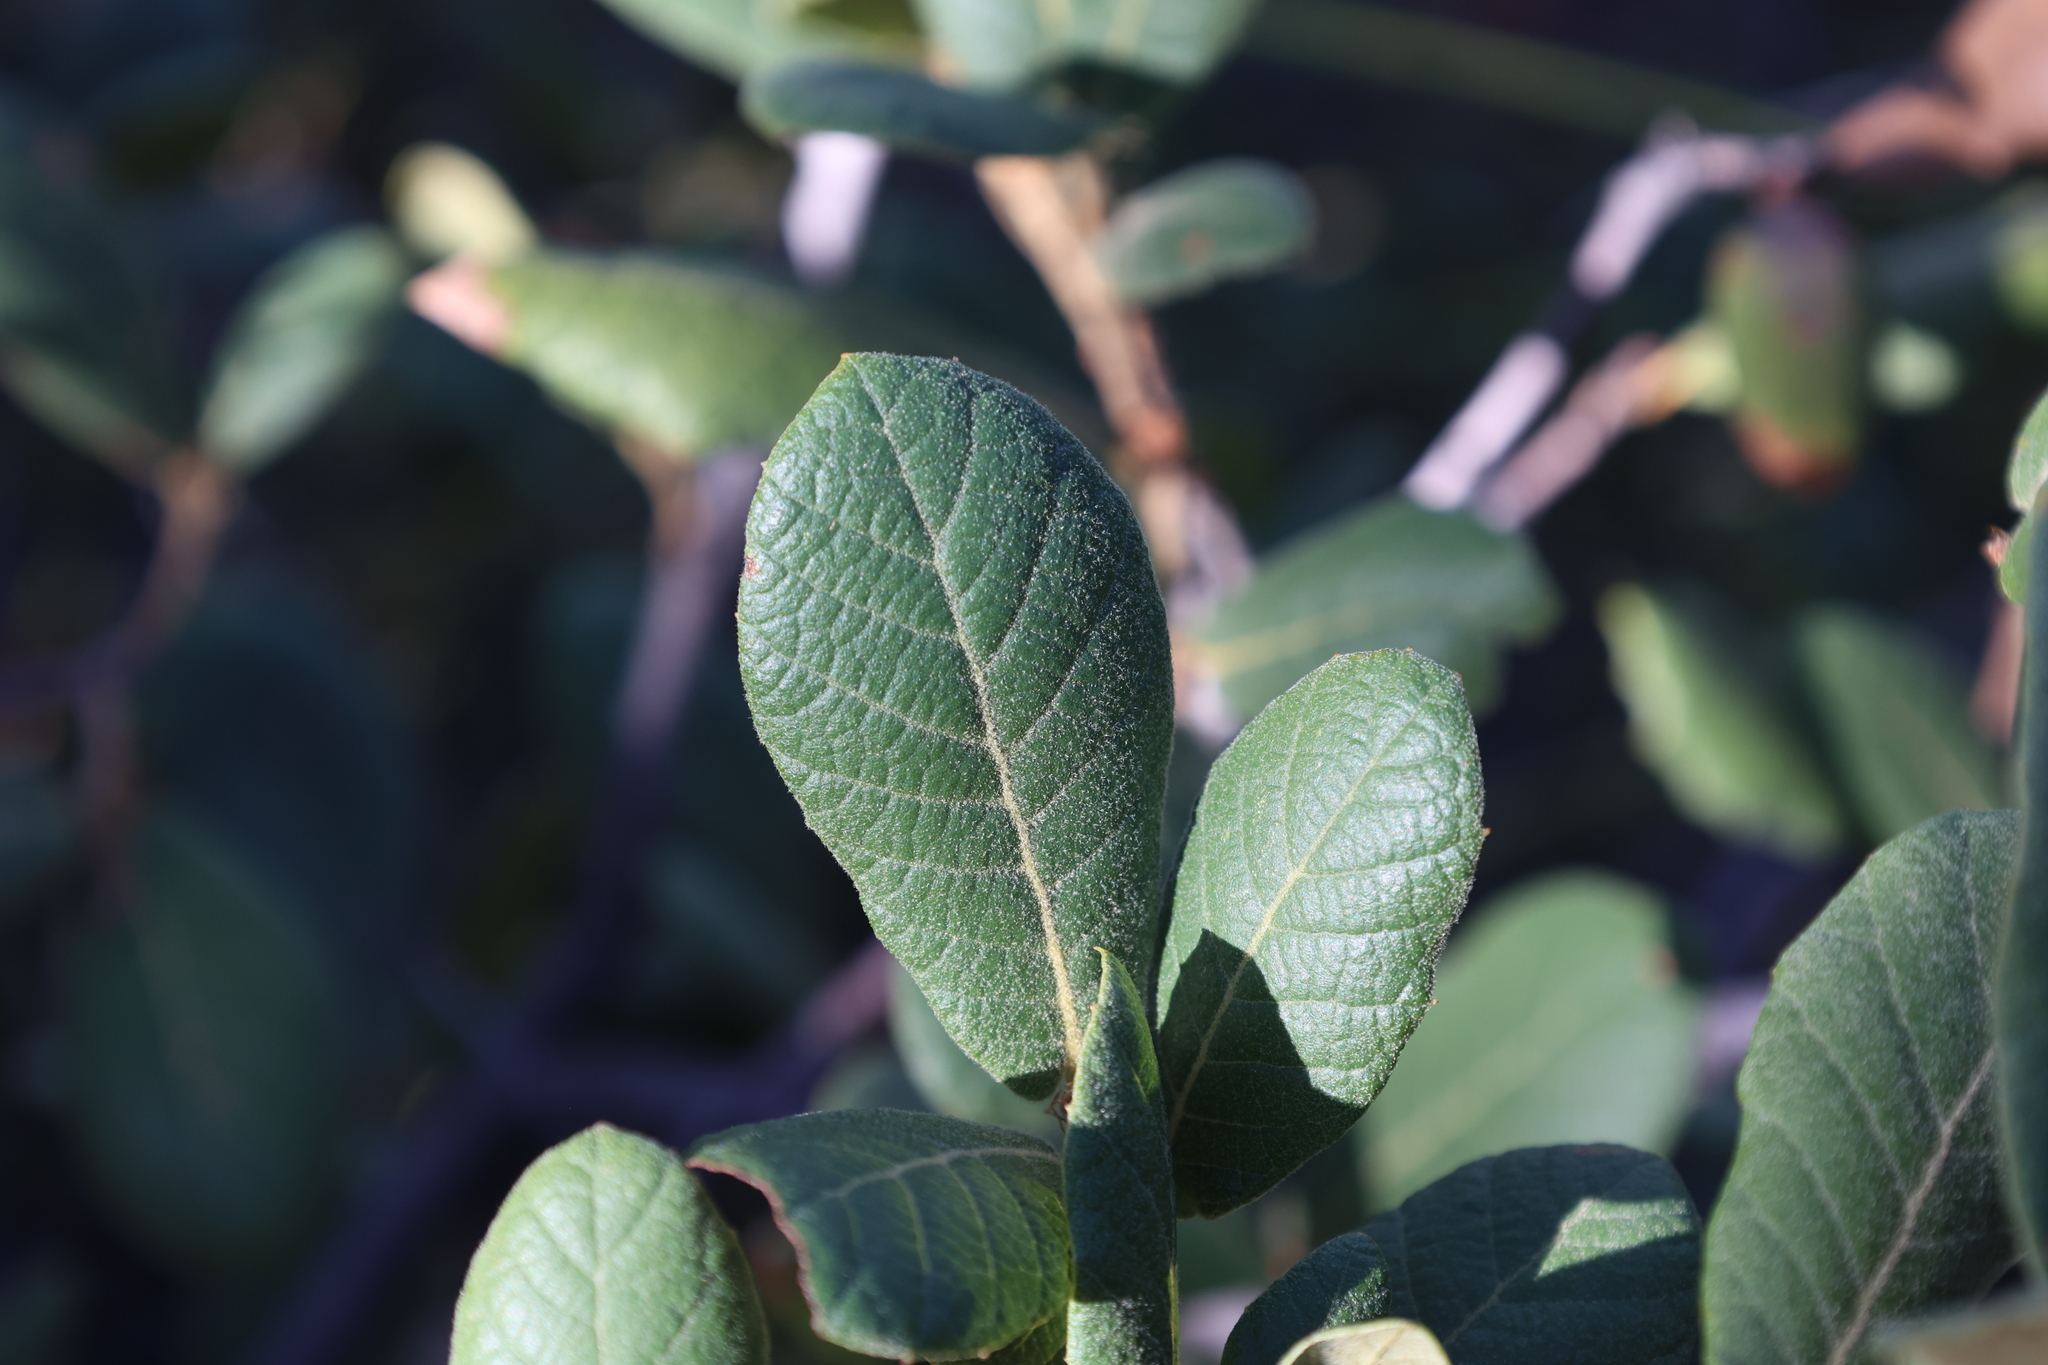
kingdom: Plantae
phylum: Tracheophyta
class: Magnoliopsida
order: Fagales
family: Fagaceae
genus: Quercus
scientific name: Quercus rugosa
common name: Netleaf oak
